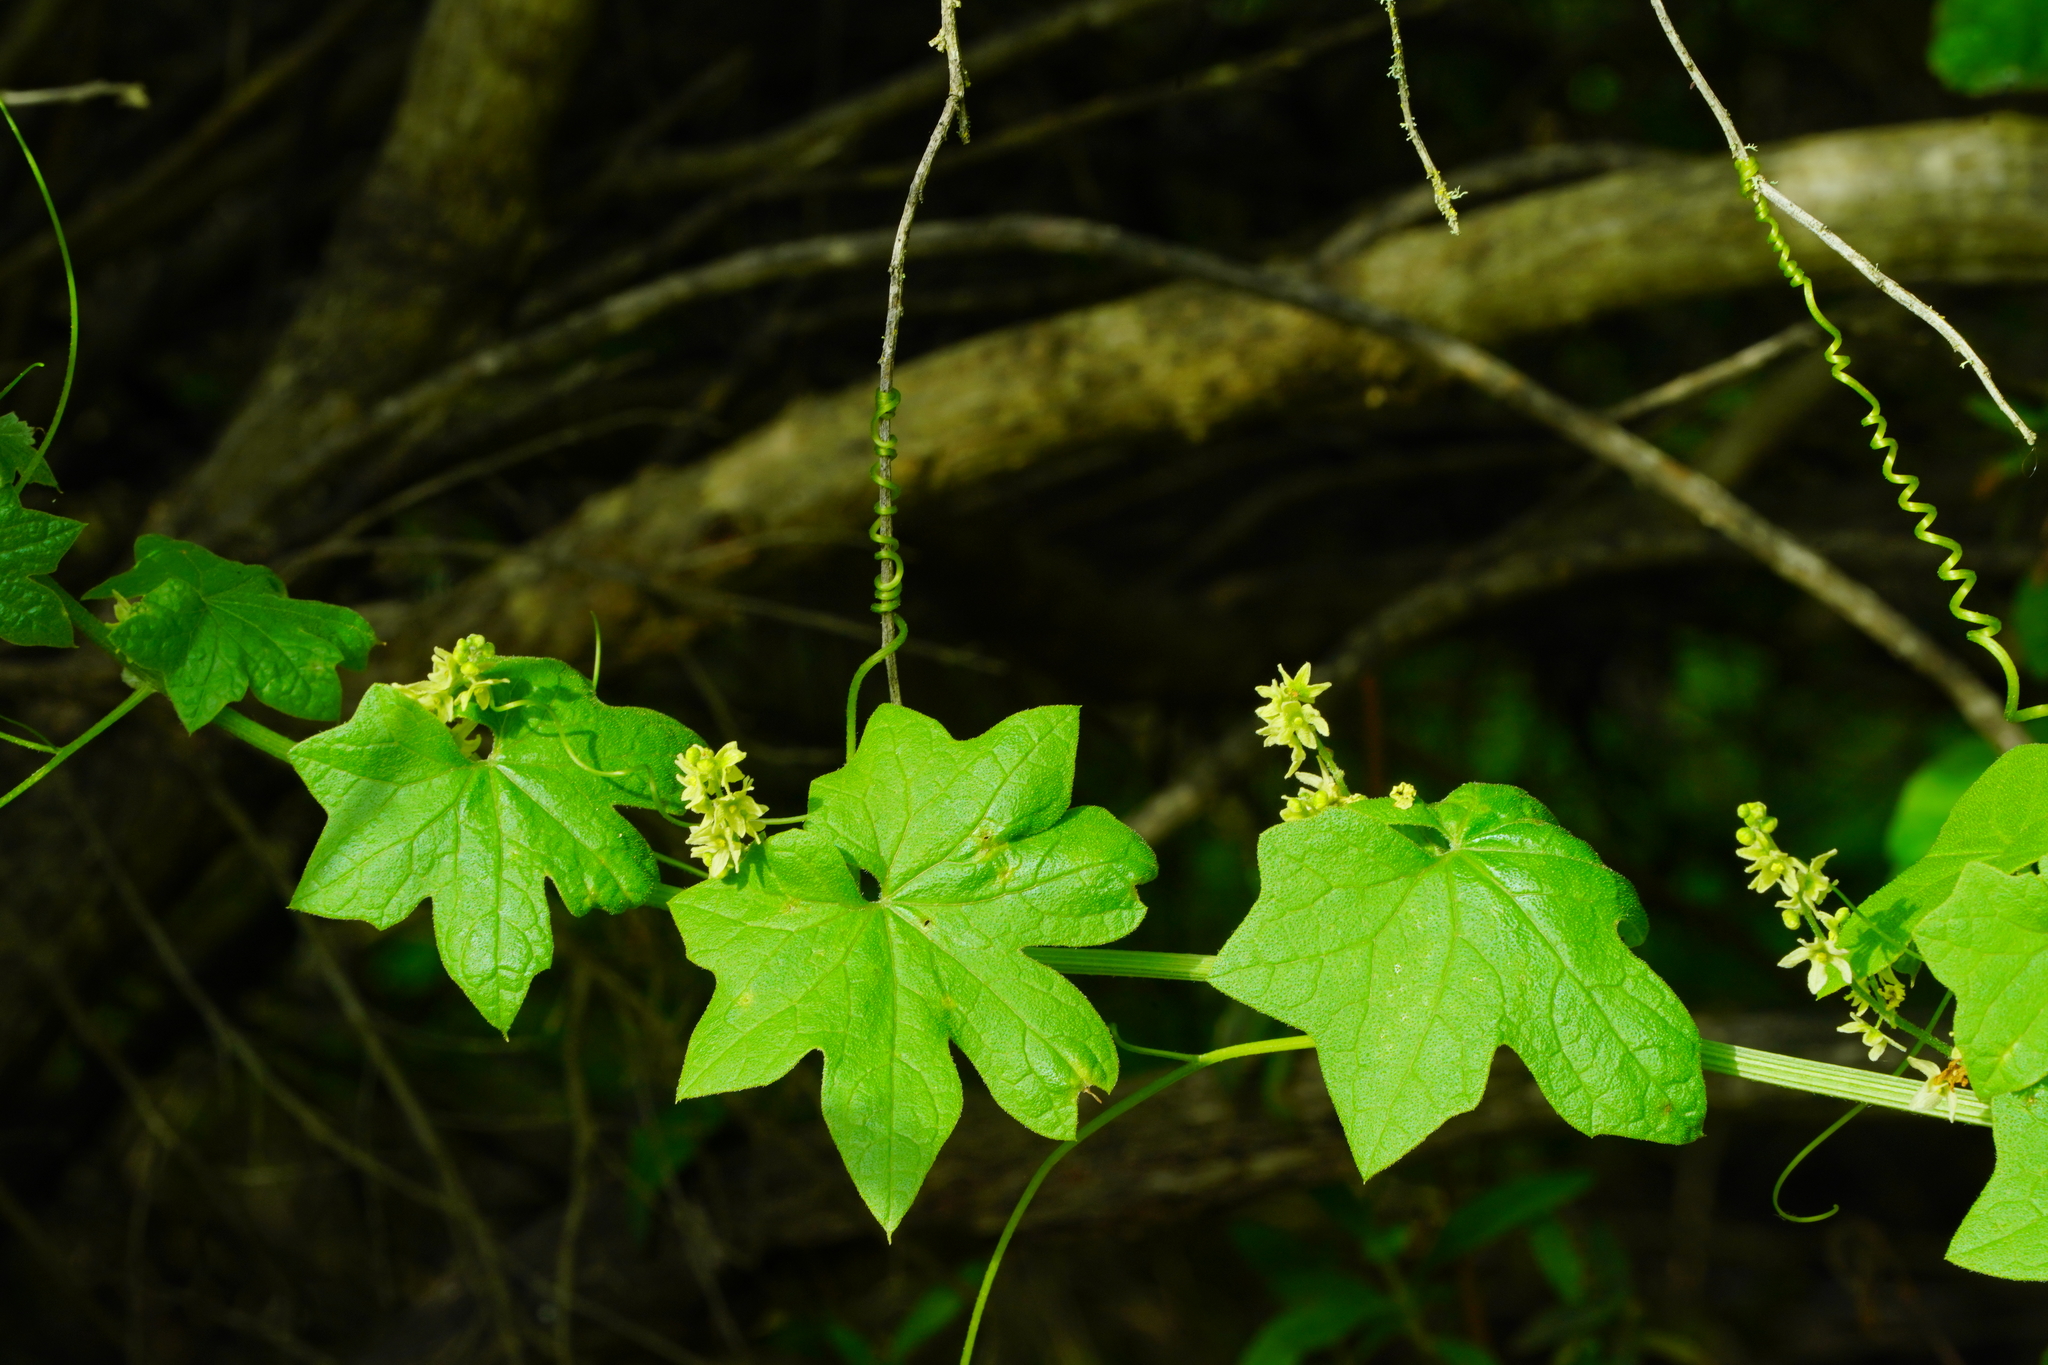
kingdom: Plantae
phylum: Tracheophyta
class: Magnoliopsida
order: Cucurbitales
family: Cucurbitaceae
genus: Marah
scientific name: Marah fabacea
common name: California manroot
